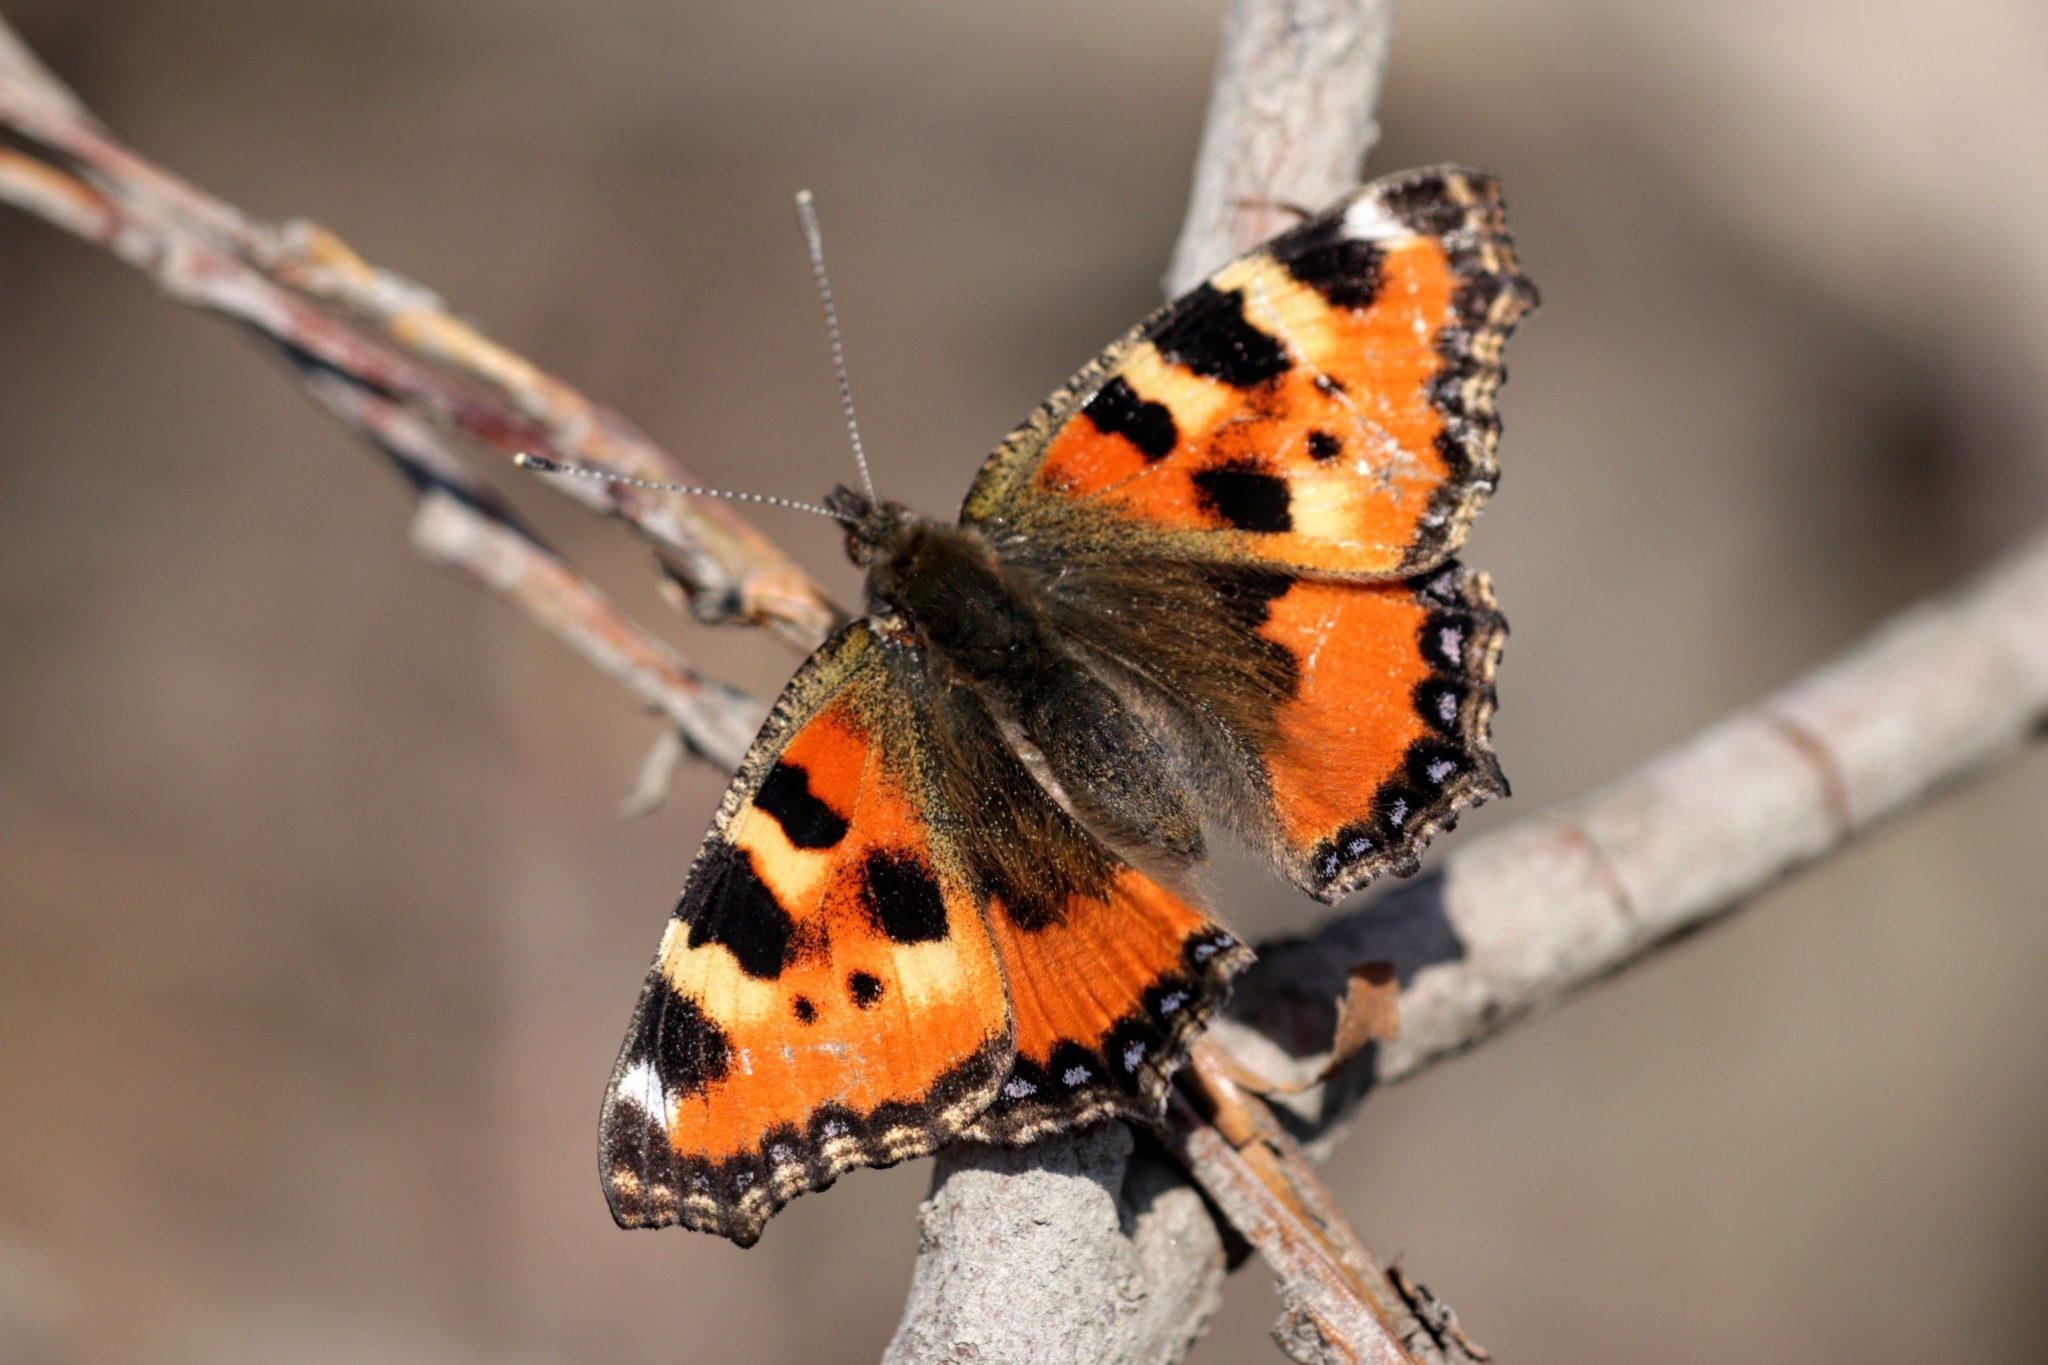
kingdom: Animalia
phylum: Arthropoda
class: Insecta
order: Lepidoptera
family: Nymphalidae
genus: Aglais
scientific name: Aglais urticae
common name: Small tortoiseshell
